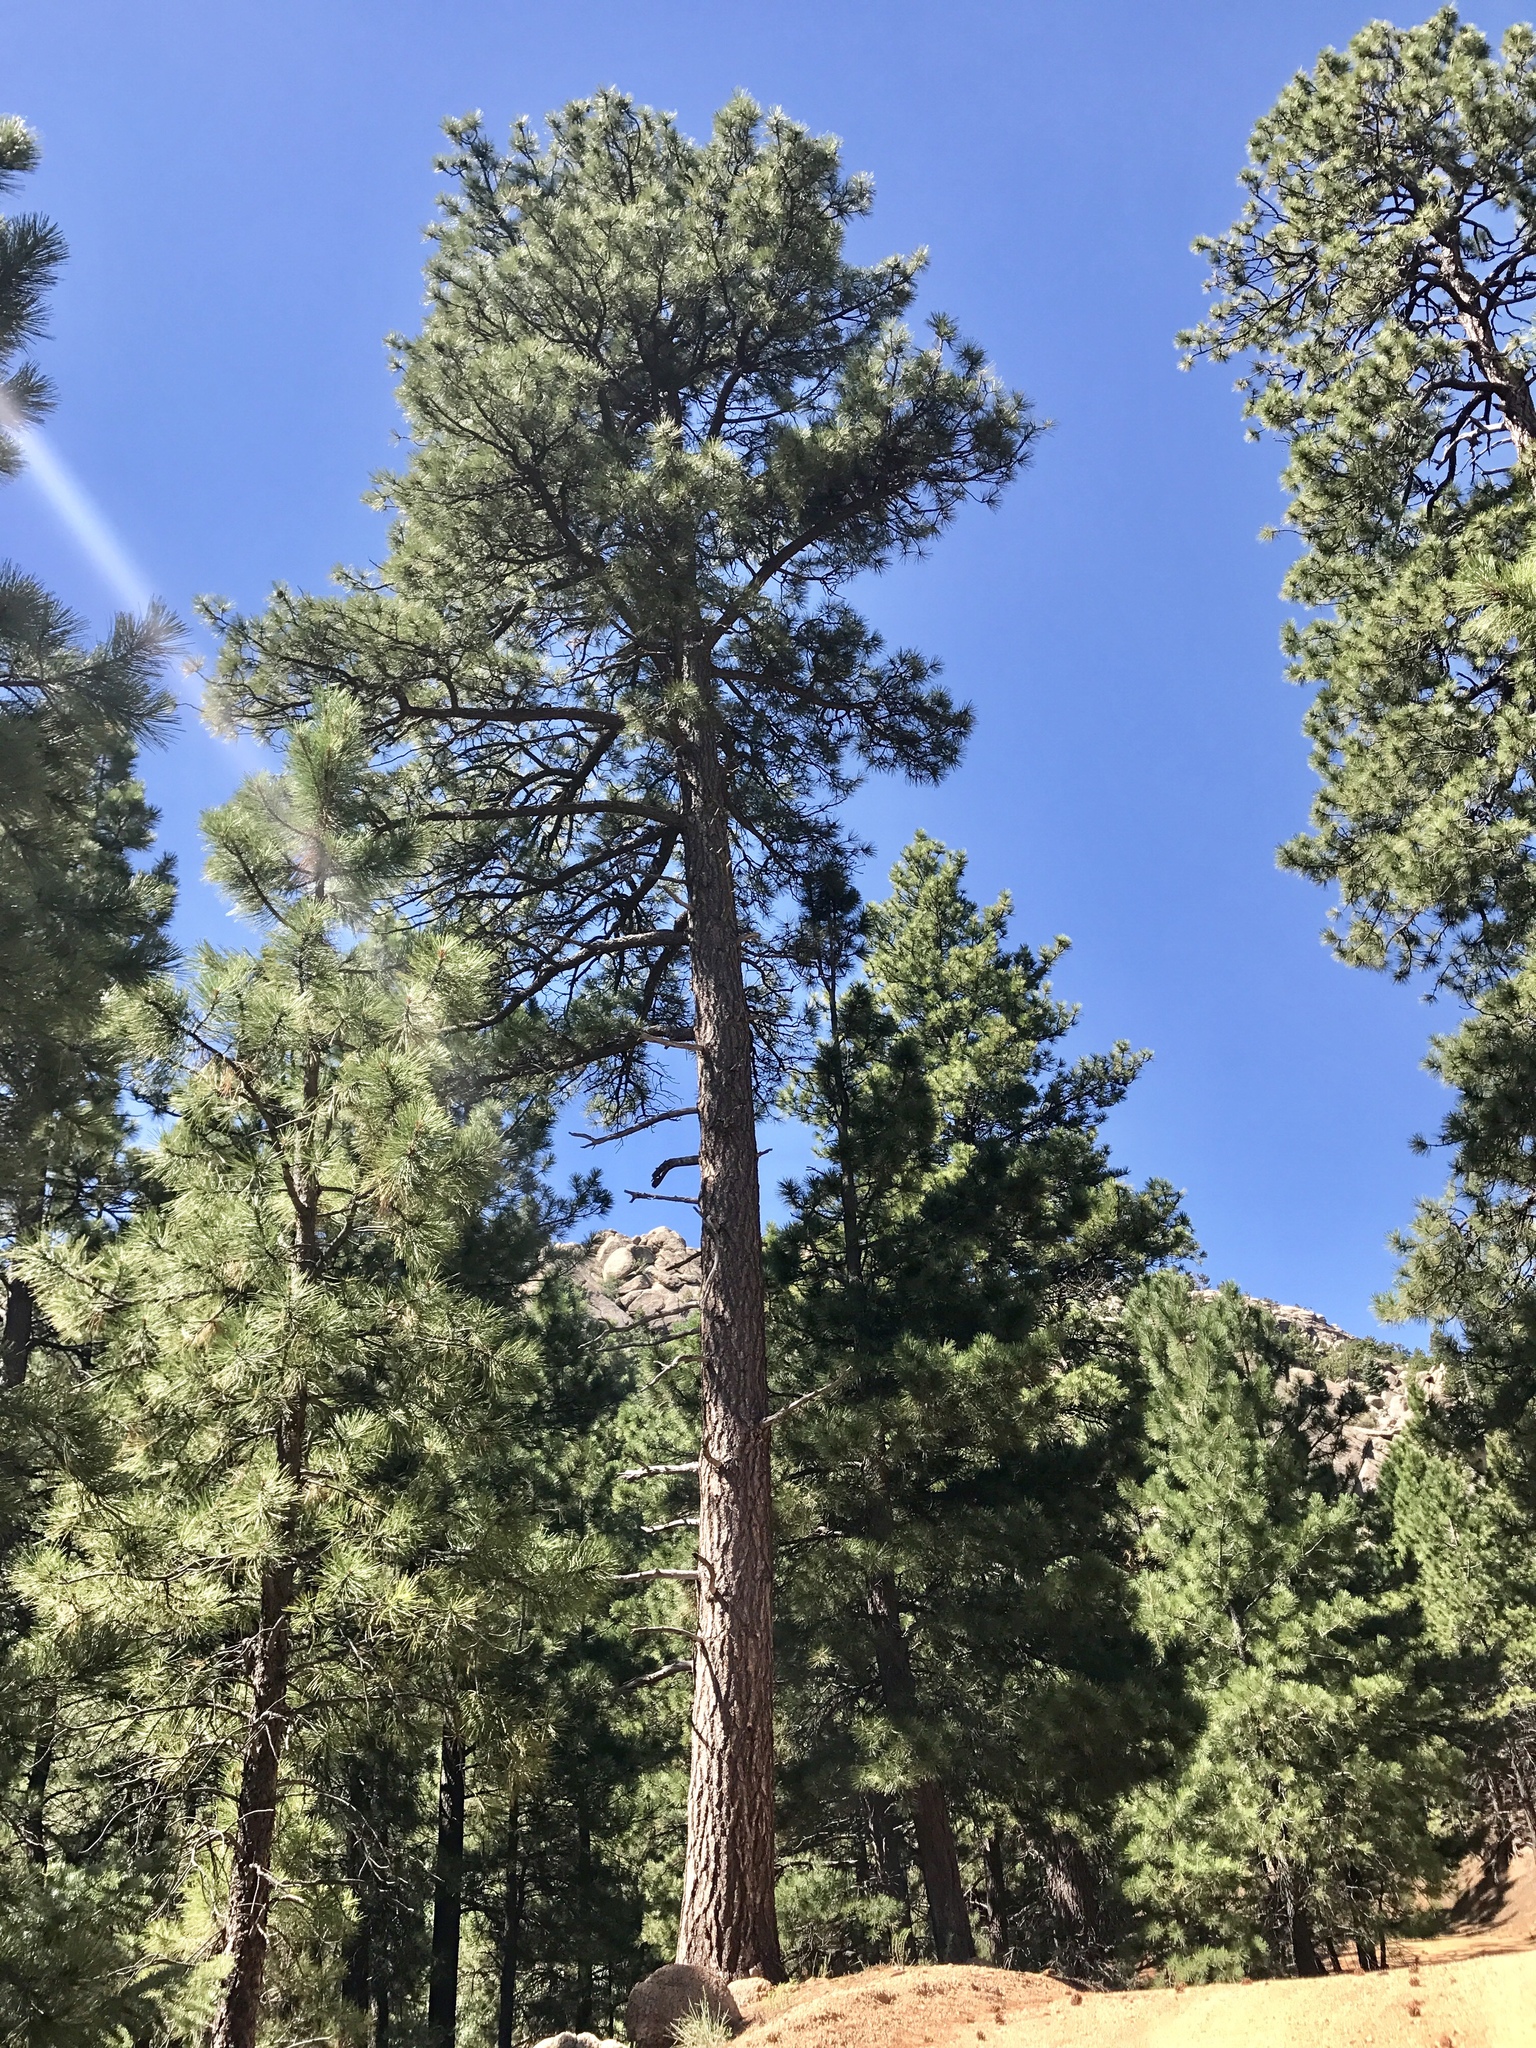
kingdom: Plantae
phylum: Tracheophyta
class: Pinopsida
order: Pinales
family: Pinaceae
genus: Pinus
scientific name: Pinus ponderosa
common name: Western yellow-pine
